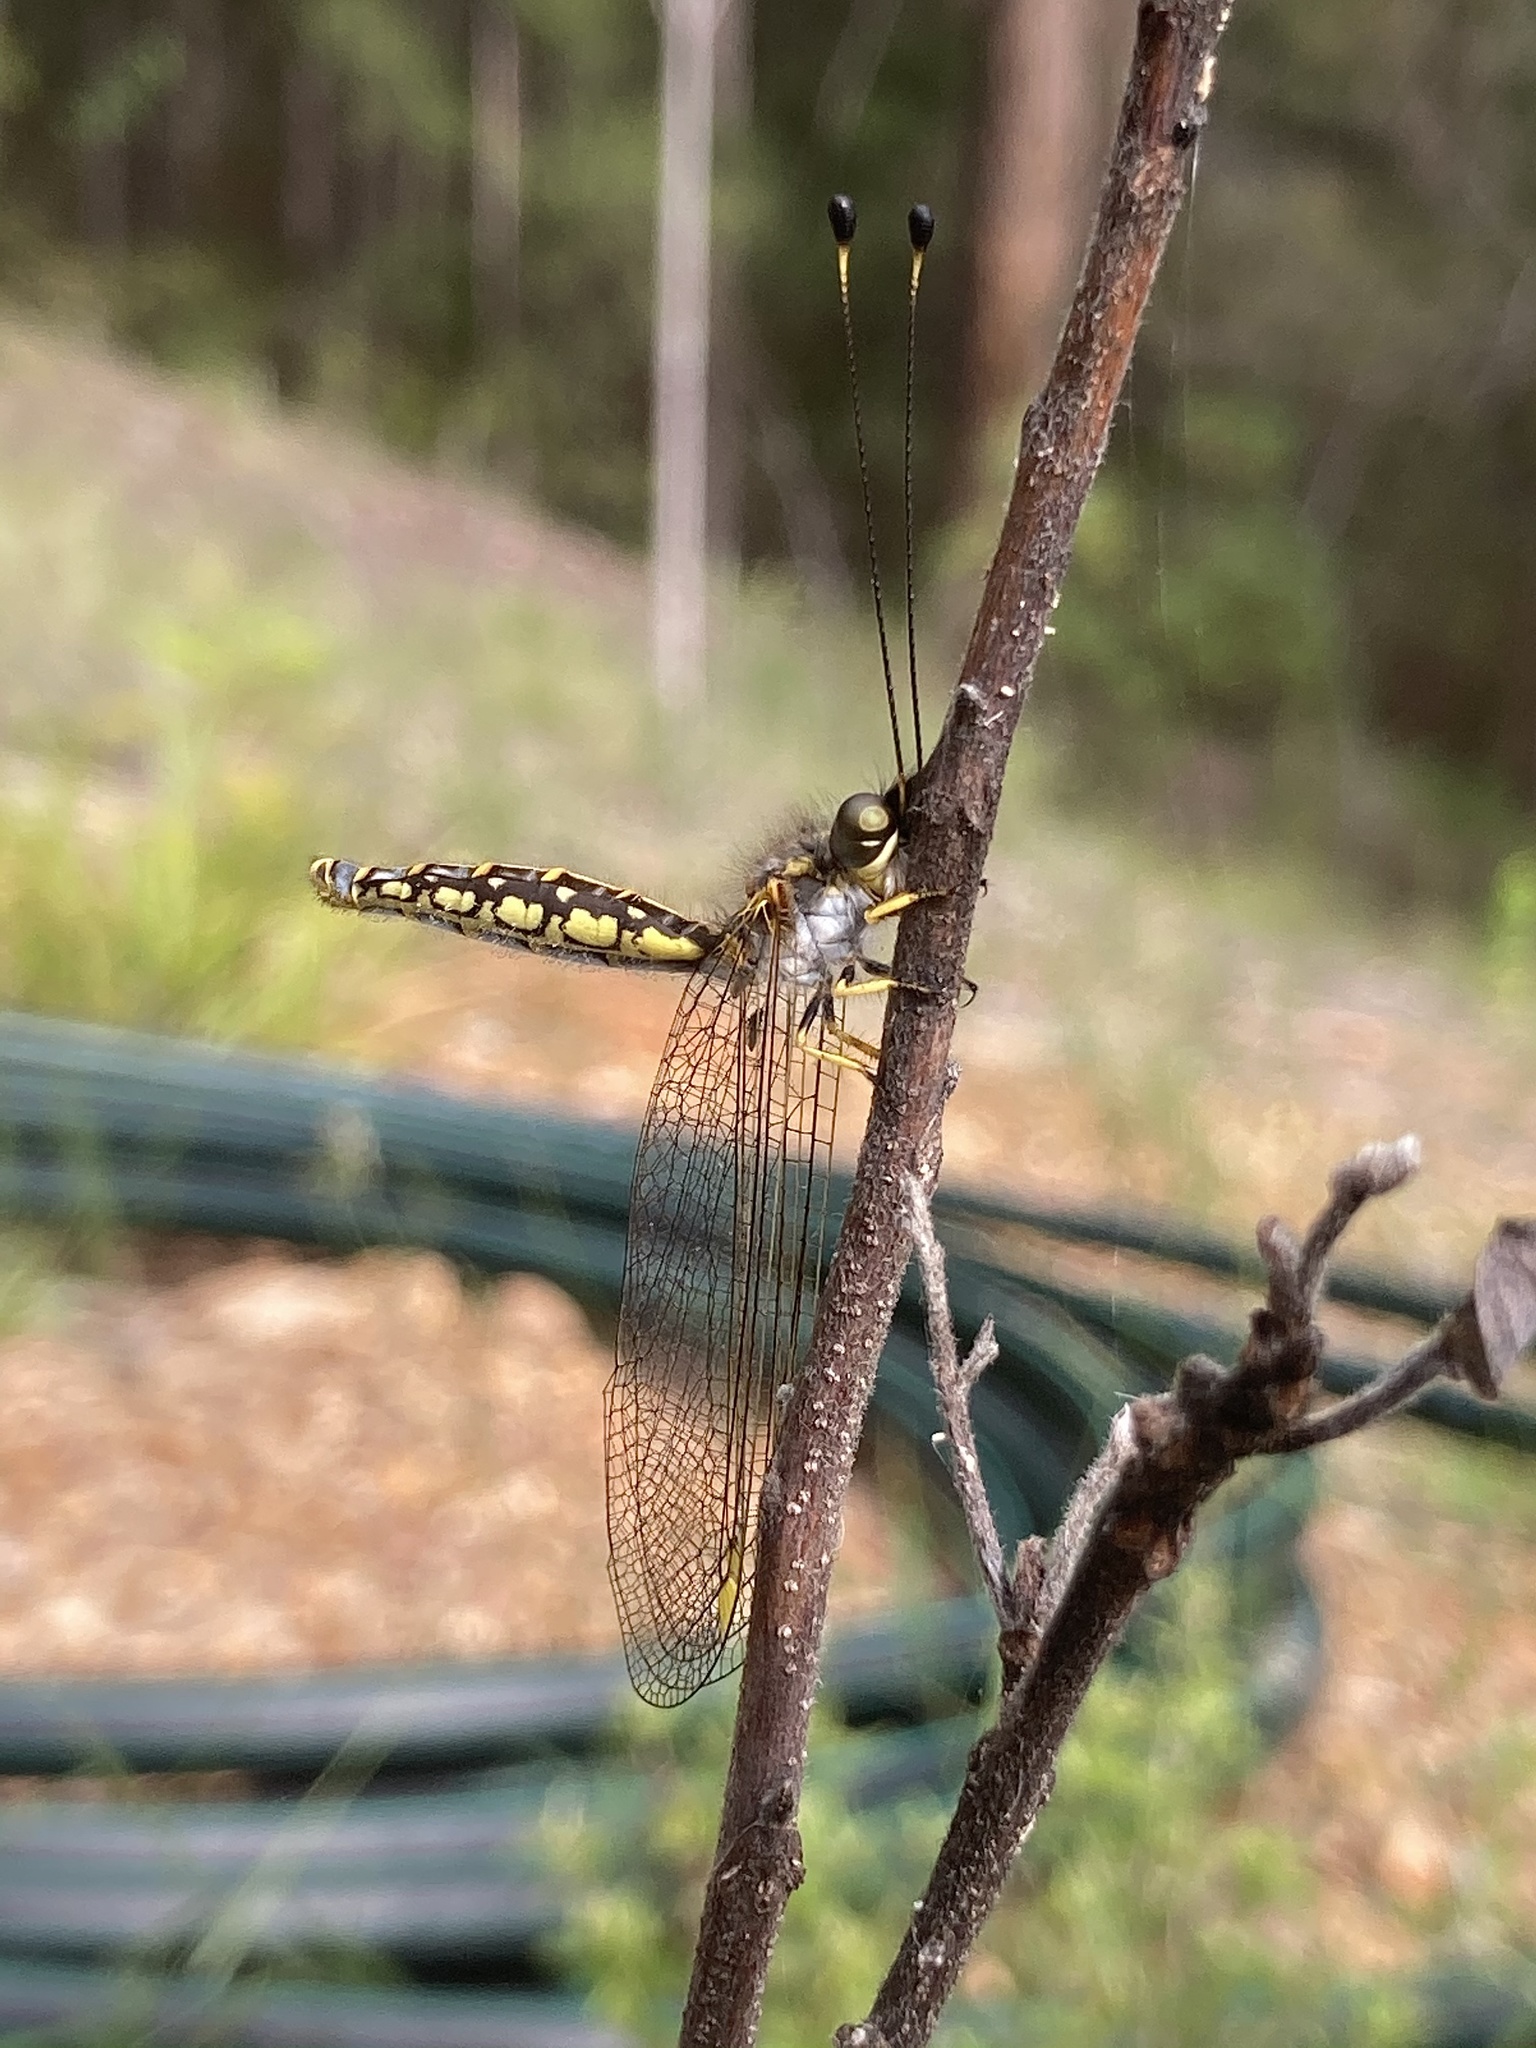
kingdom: Animalia
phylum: Arthropoda
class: Insecta
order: Neuroptera
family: Ascalaphidae
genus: Suhpalacsa
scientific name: Suhpalacsa flavipes
